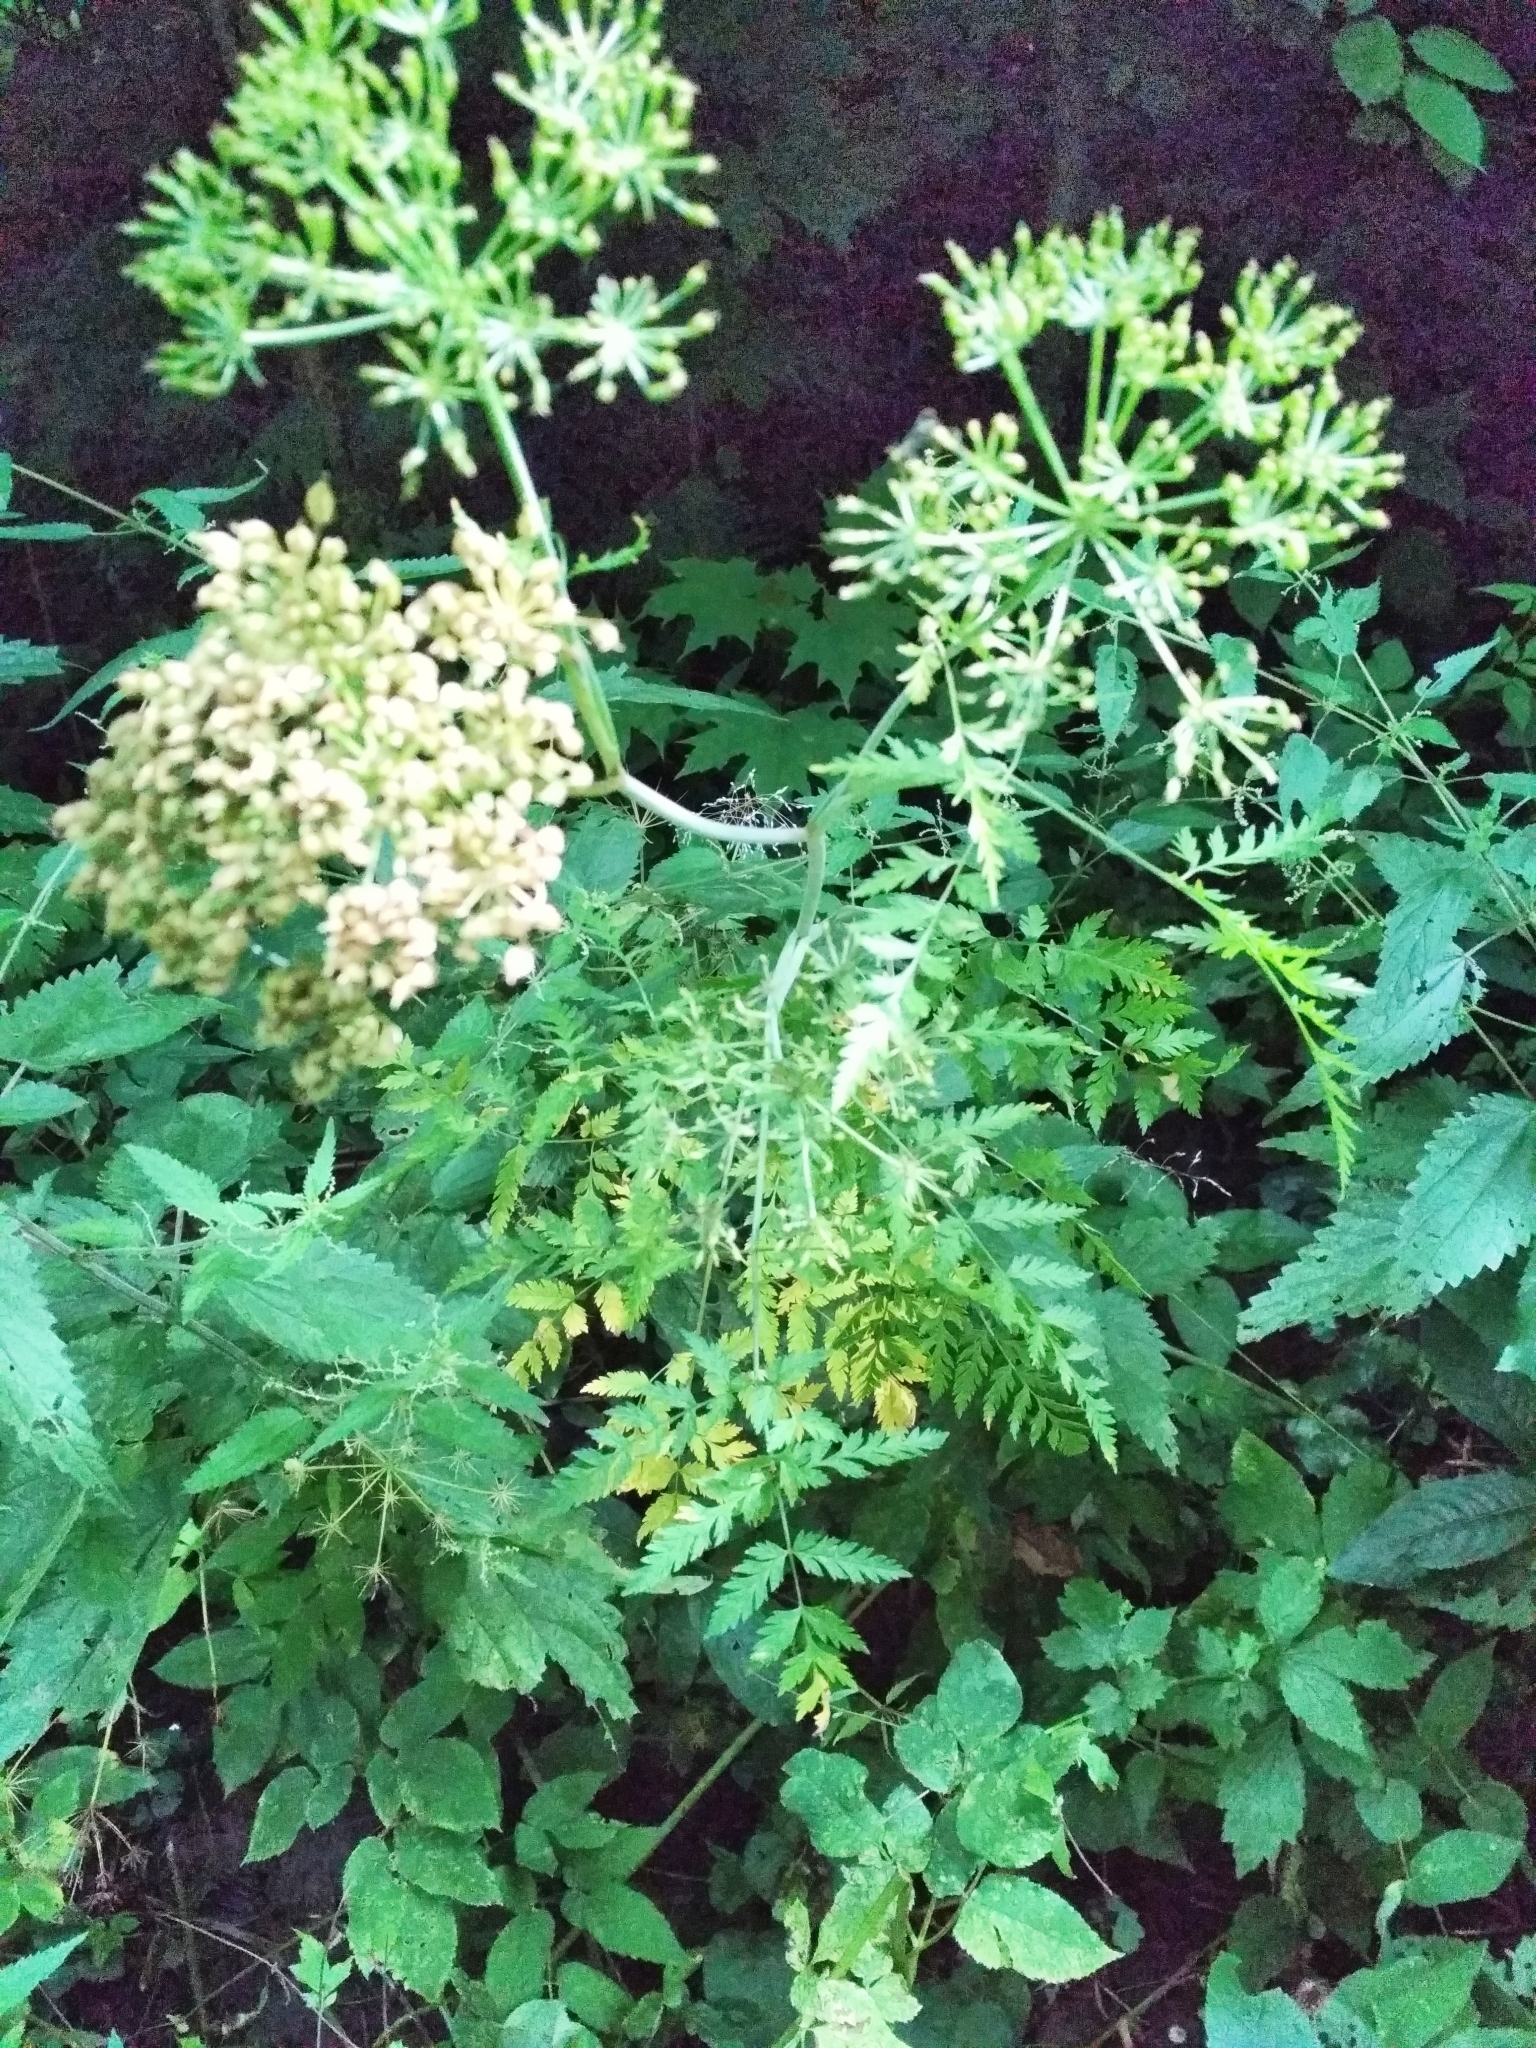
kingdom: Plantae
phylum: Tracheophyta
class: Magnoliopsida
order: Apiales
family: Apiaceae
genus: Conioselinum
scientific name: Conioselinum tataricum
